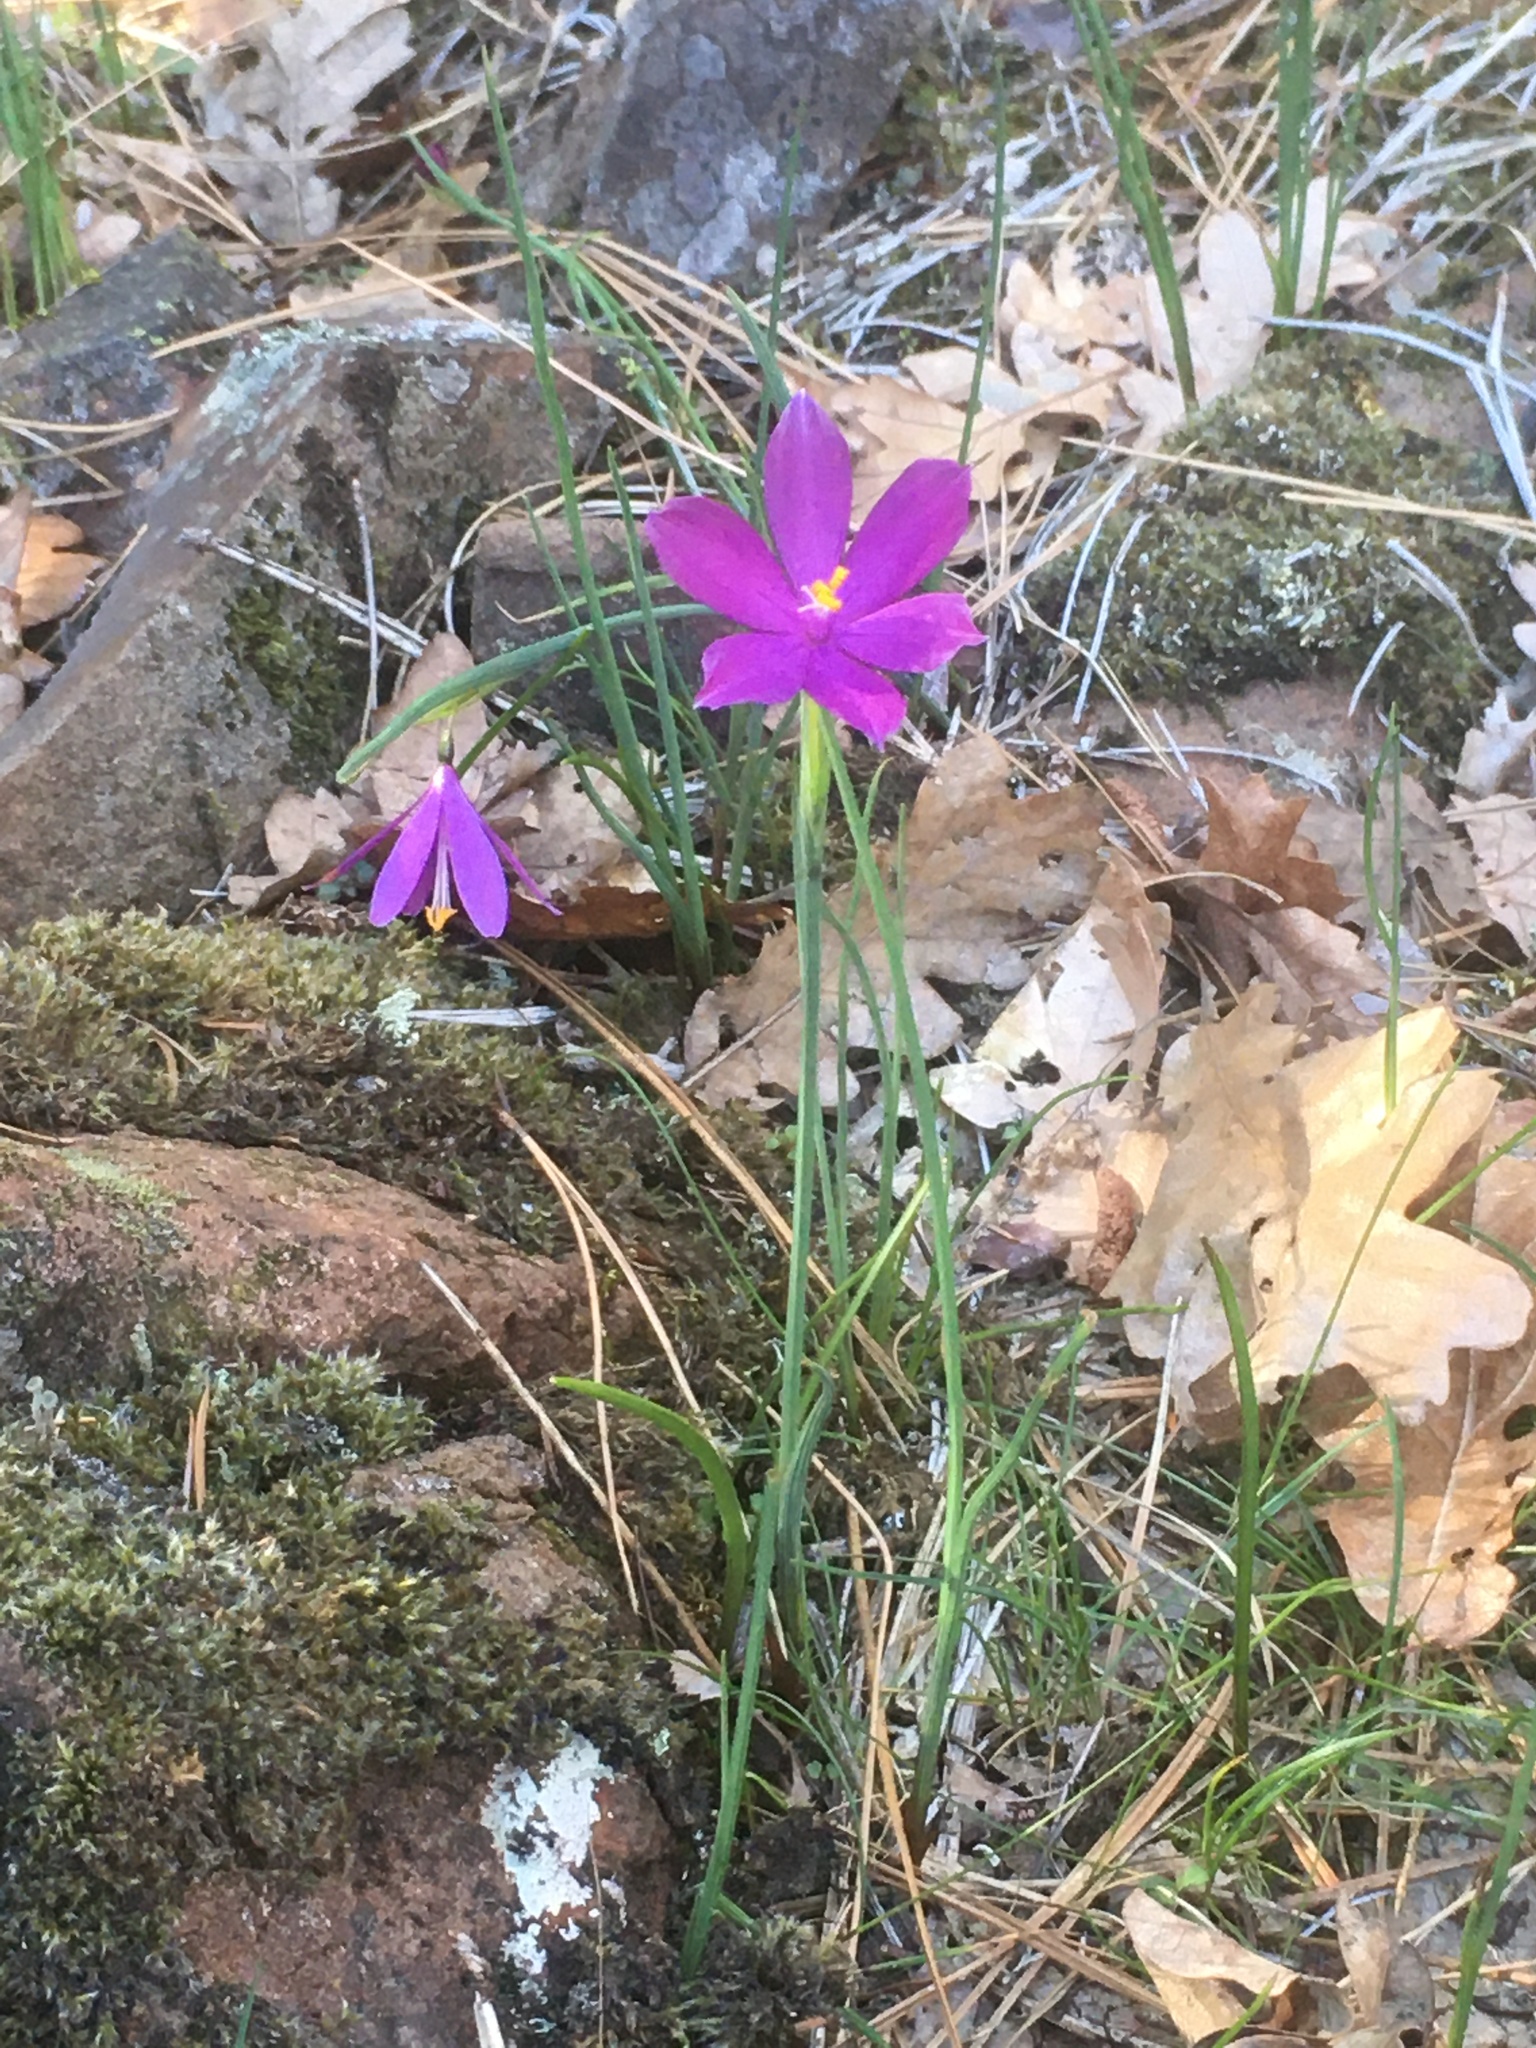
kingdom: Plantae
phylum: Tracheophyta
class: Liliopsida
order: Asparagales
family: Iridaceae
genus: Olsynium
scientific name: Olsynium douglasii
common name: Douglas' grasswidow
